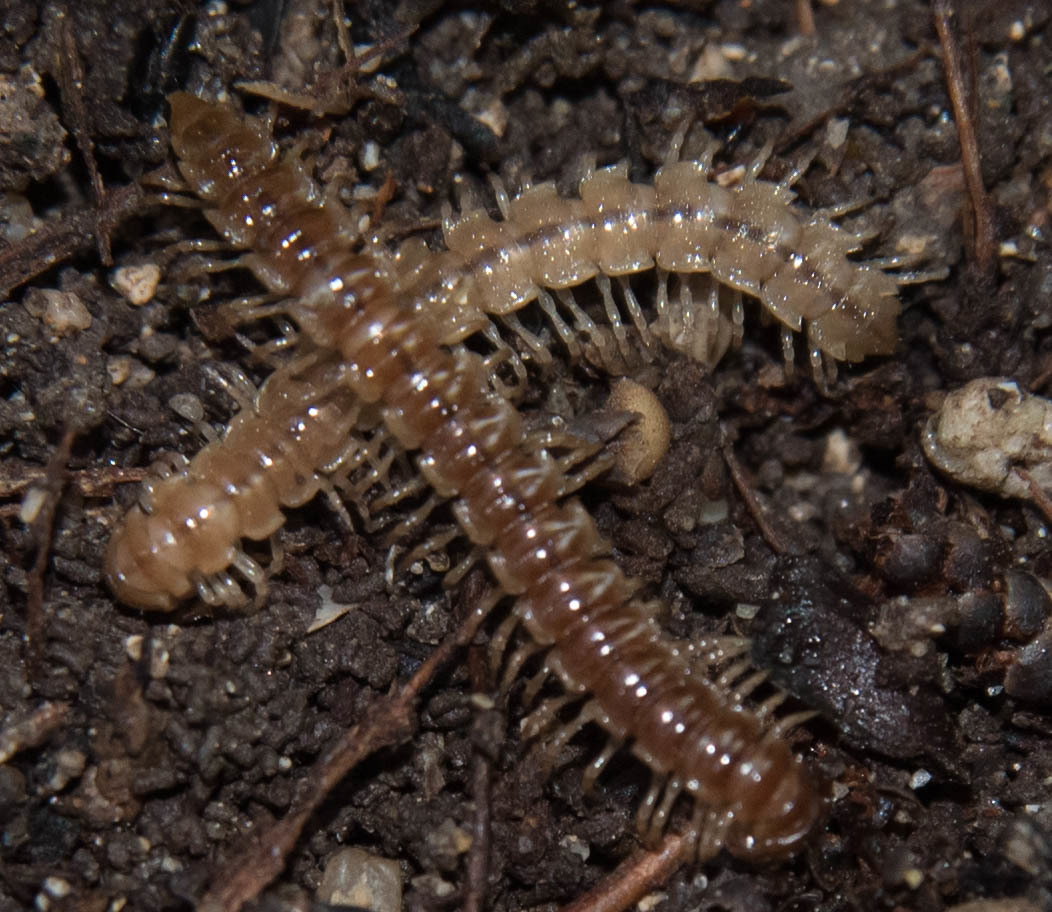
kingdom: Animalia
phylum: Arthropoda
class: Diplopoda
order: Polydesmida
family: Paradoxosomatidae
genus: Oxidus
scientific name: Oxidus gracilis
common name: Greenhouse millipede
